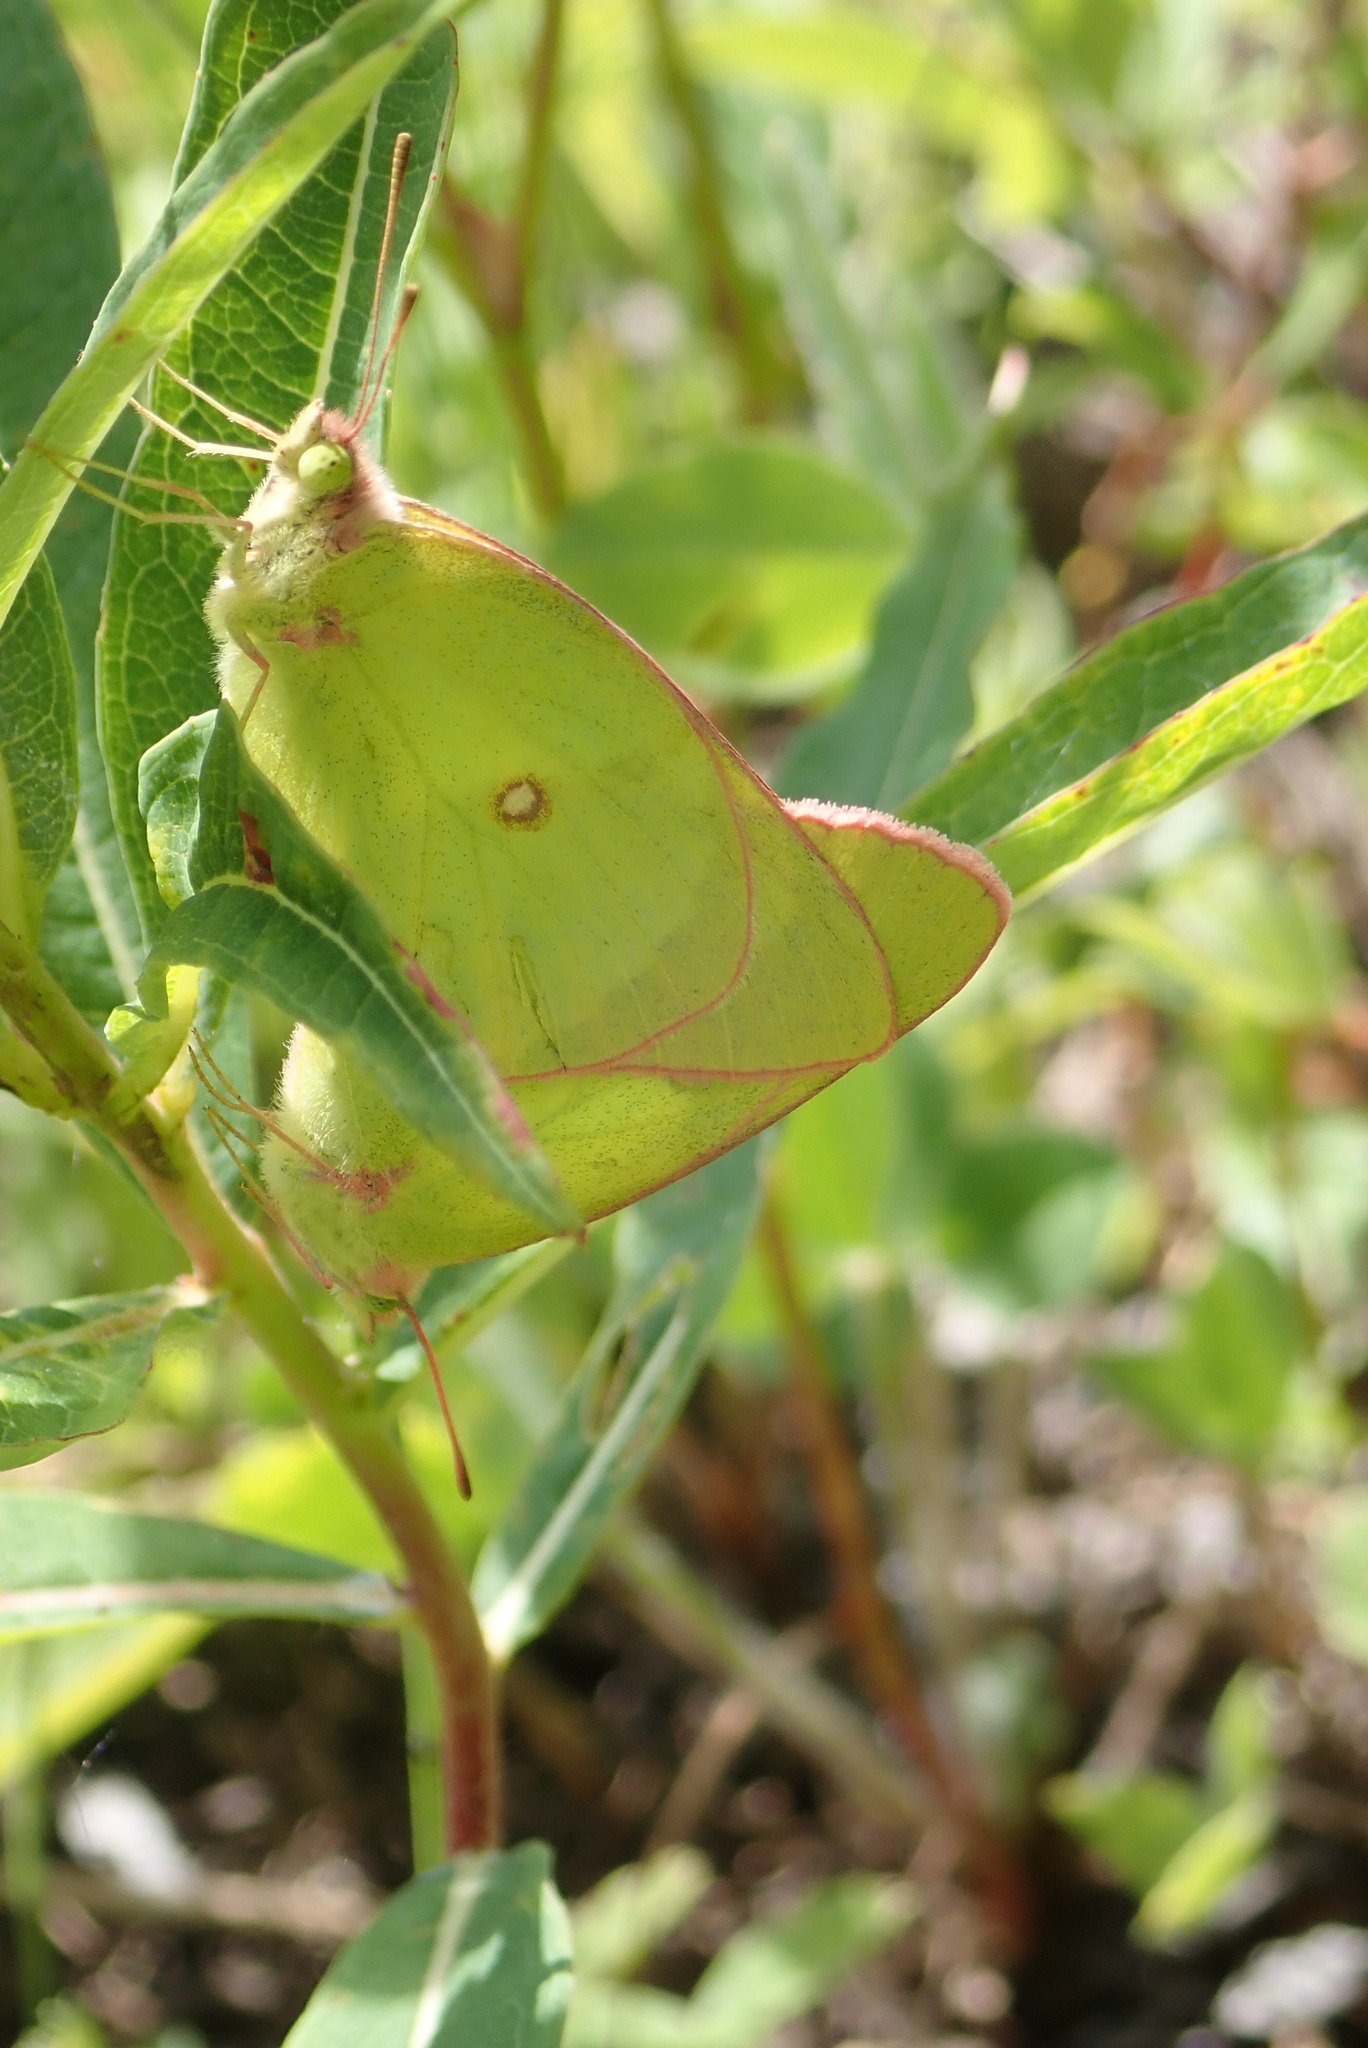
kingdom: Animalia
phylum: Arthropoda
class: Insecta
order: Lepidoptera
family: Pieridae
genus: Colias
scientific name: Colias interior
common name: Pink-edged sulphur
